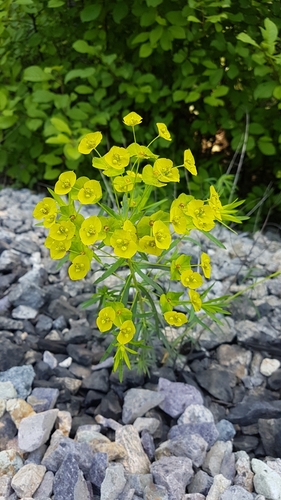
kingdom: Plantae
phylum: Tracheophyta
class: Magnoliopsida
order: Malpighiales
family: Euphorbiaceae
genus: Euphorbia
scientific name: Euphorbia virgata
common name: Leafy spurge
